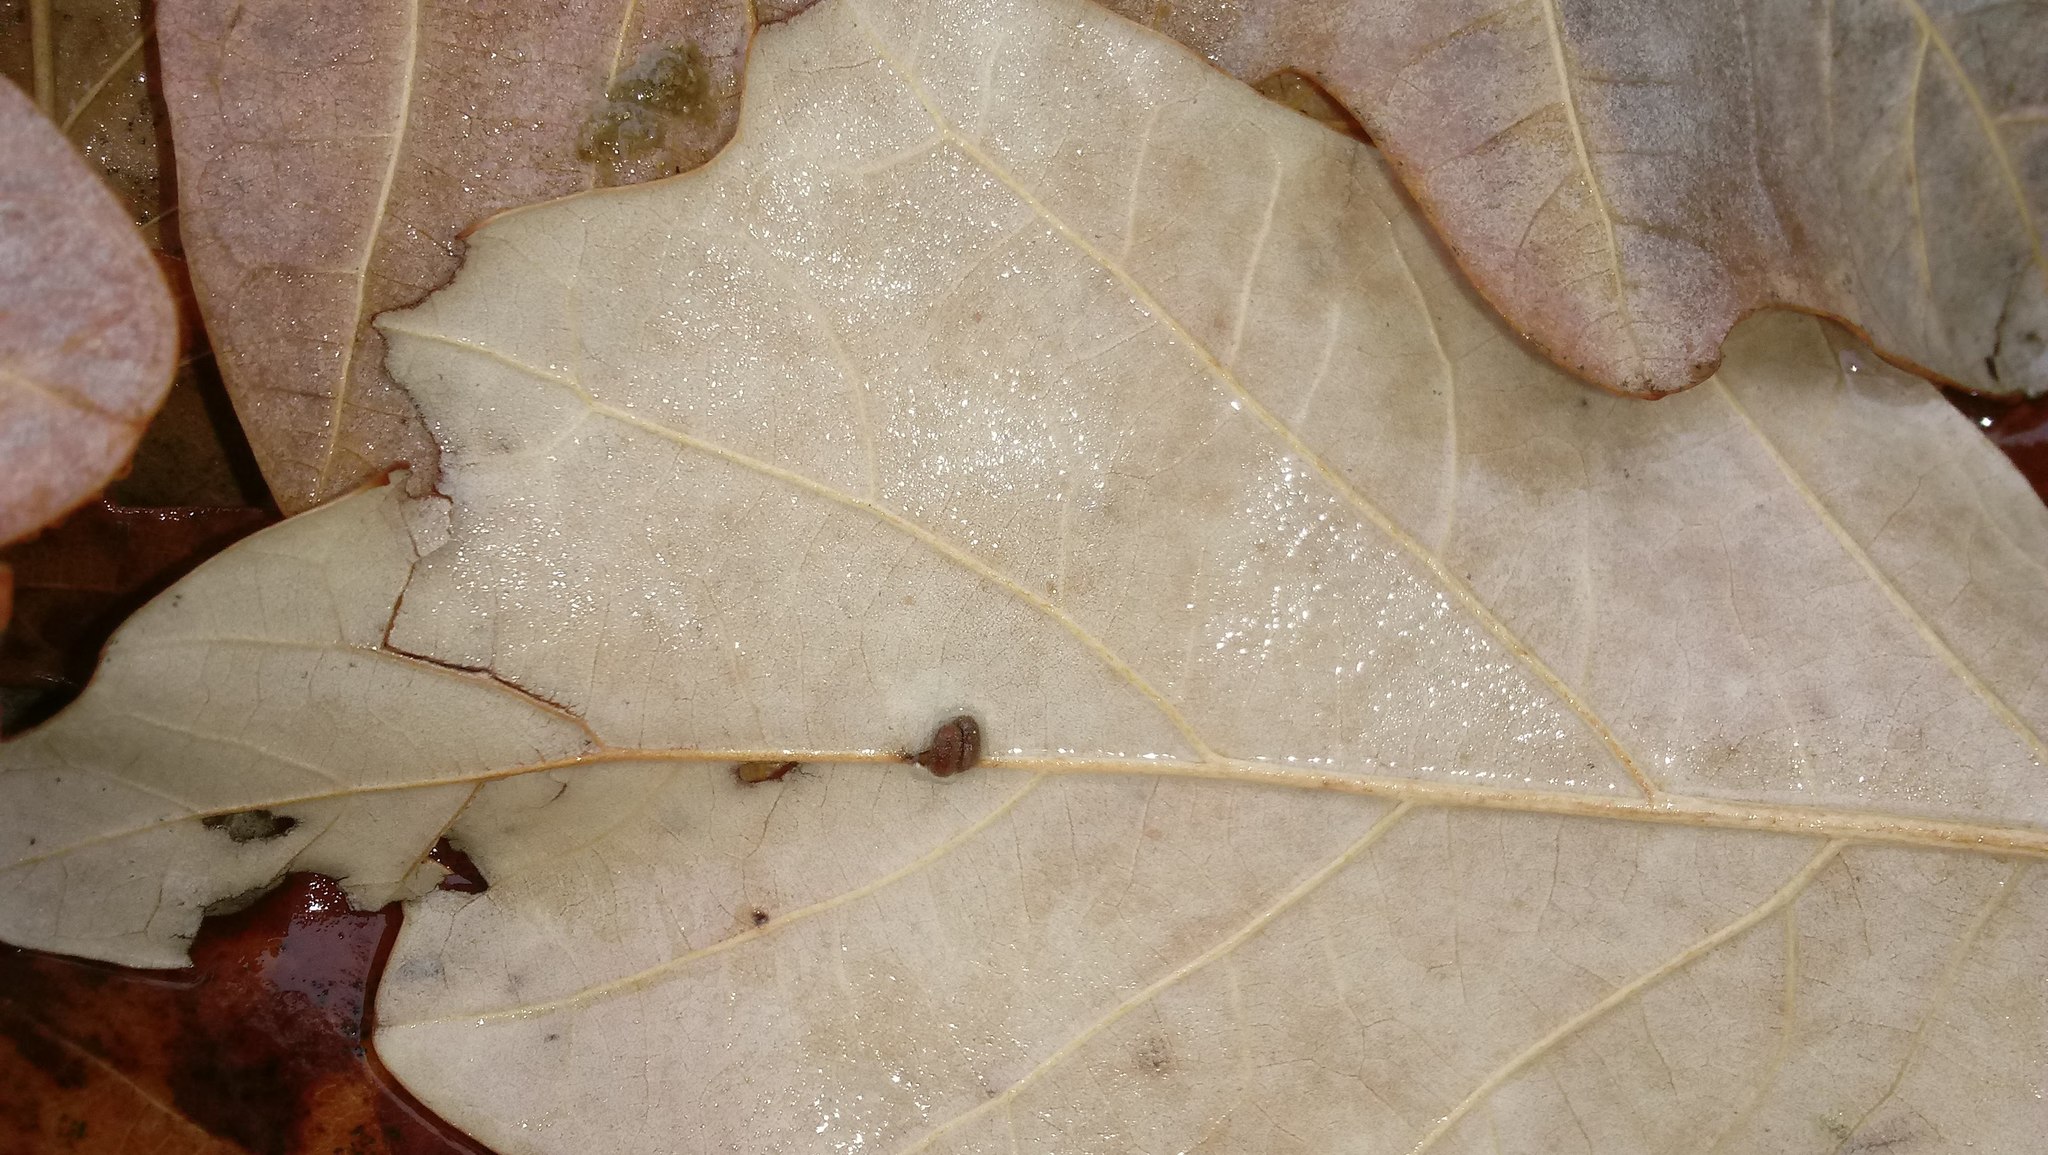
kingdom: Animalia
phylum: Arthropoda
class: Insecta
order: Hymenoptera
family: Cynipidae
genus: Andricus
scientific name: Andricus Druon ignotum
